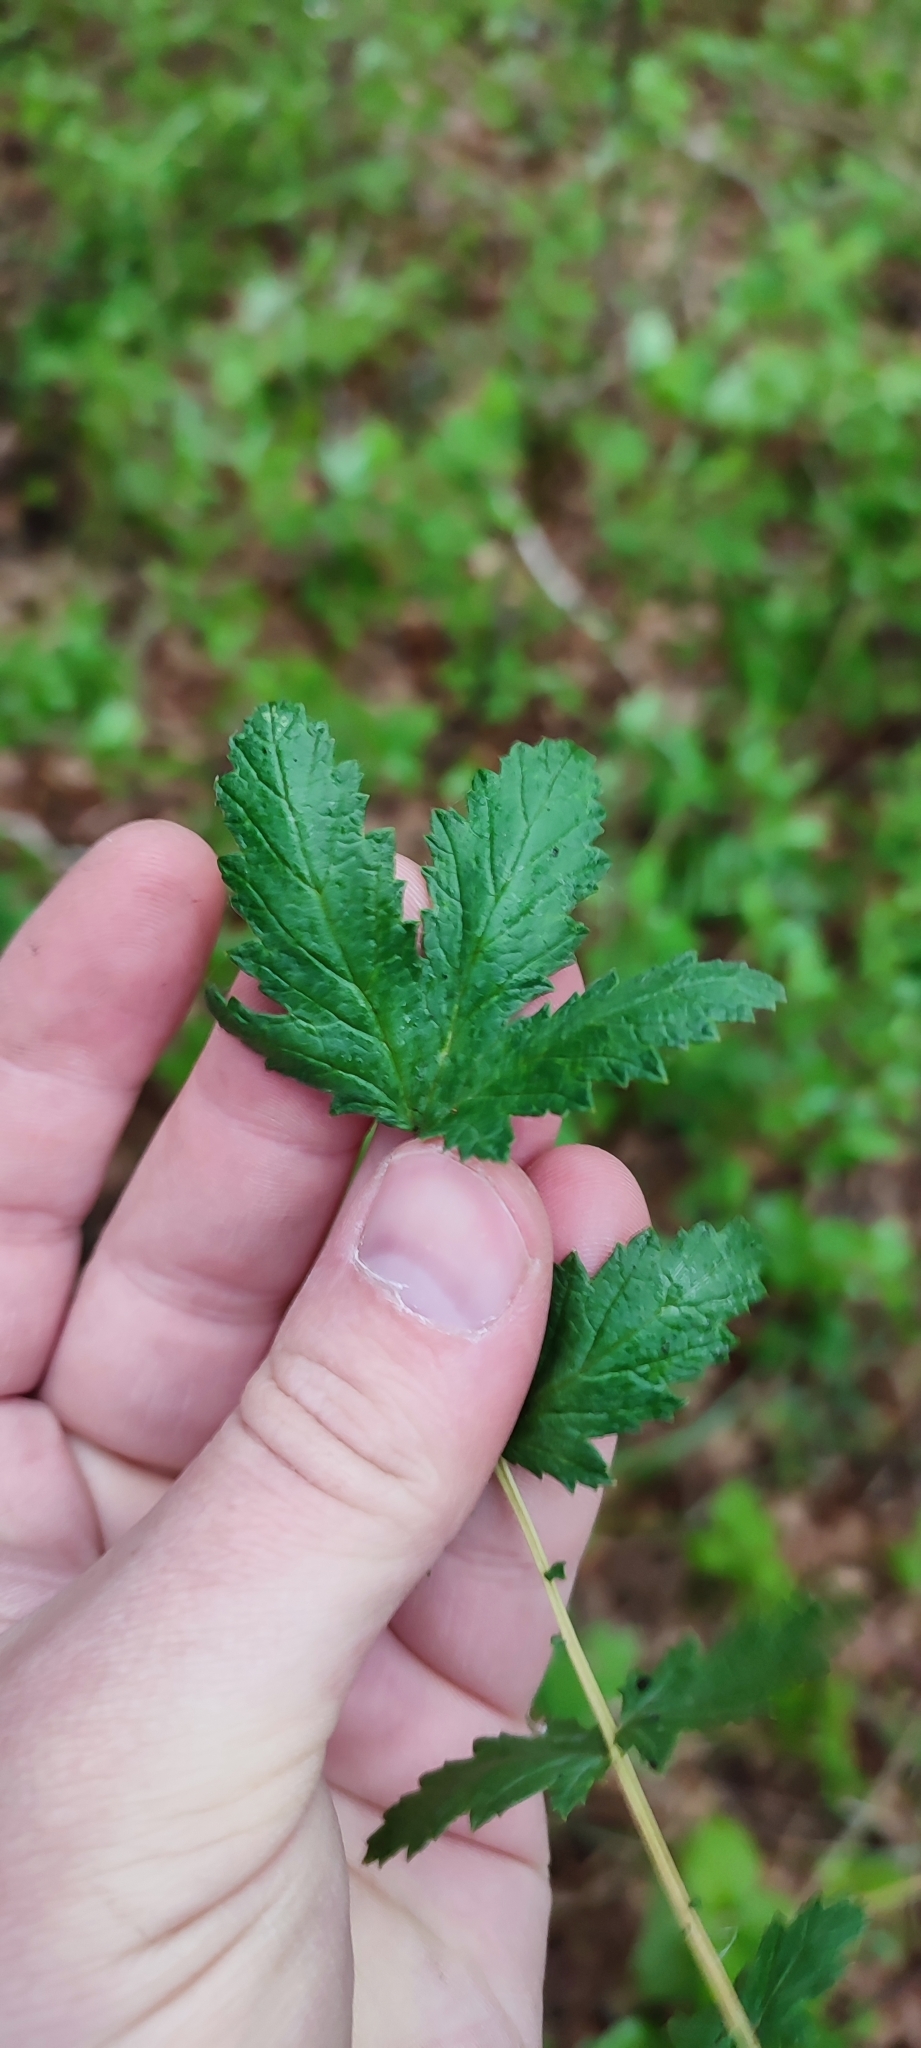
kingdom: Plantae
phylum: Tracheophyta
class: Magnoliopsida
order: Rosales
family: Rosaceae
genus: Filipendula
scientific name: Filipendula ulmaria
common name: Meadowsweet
